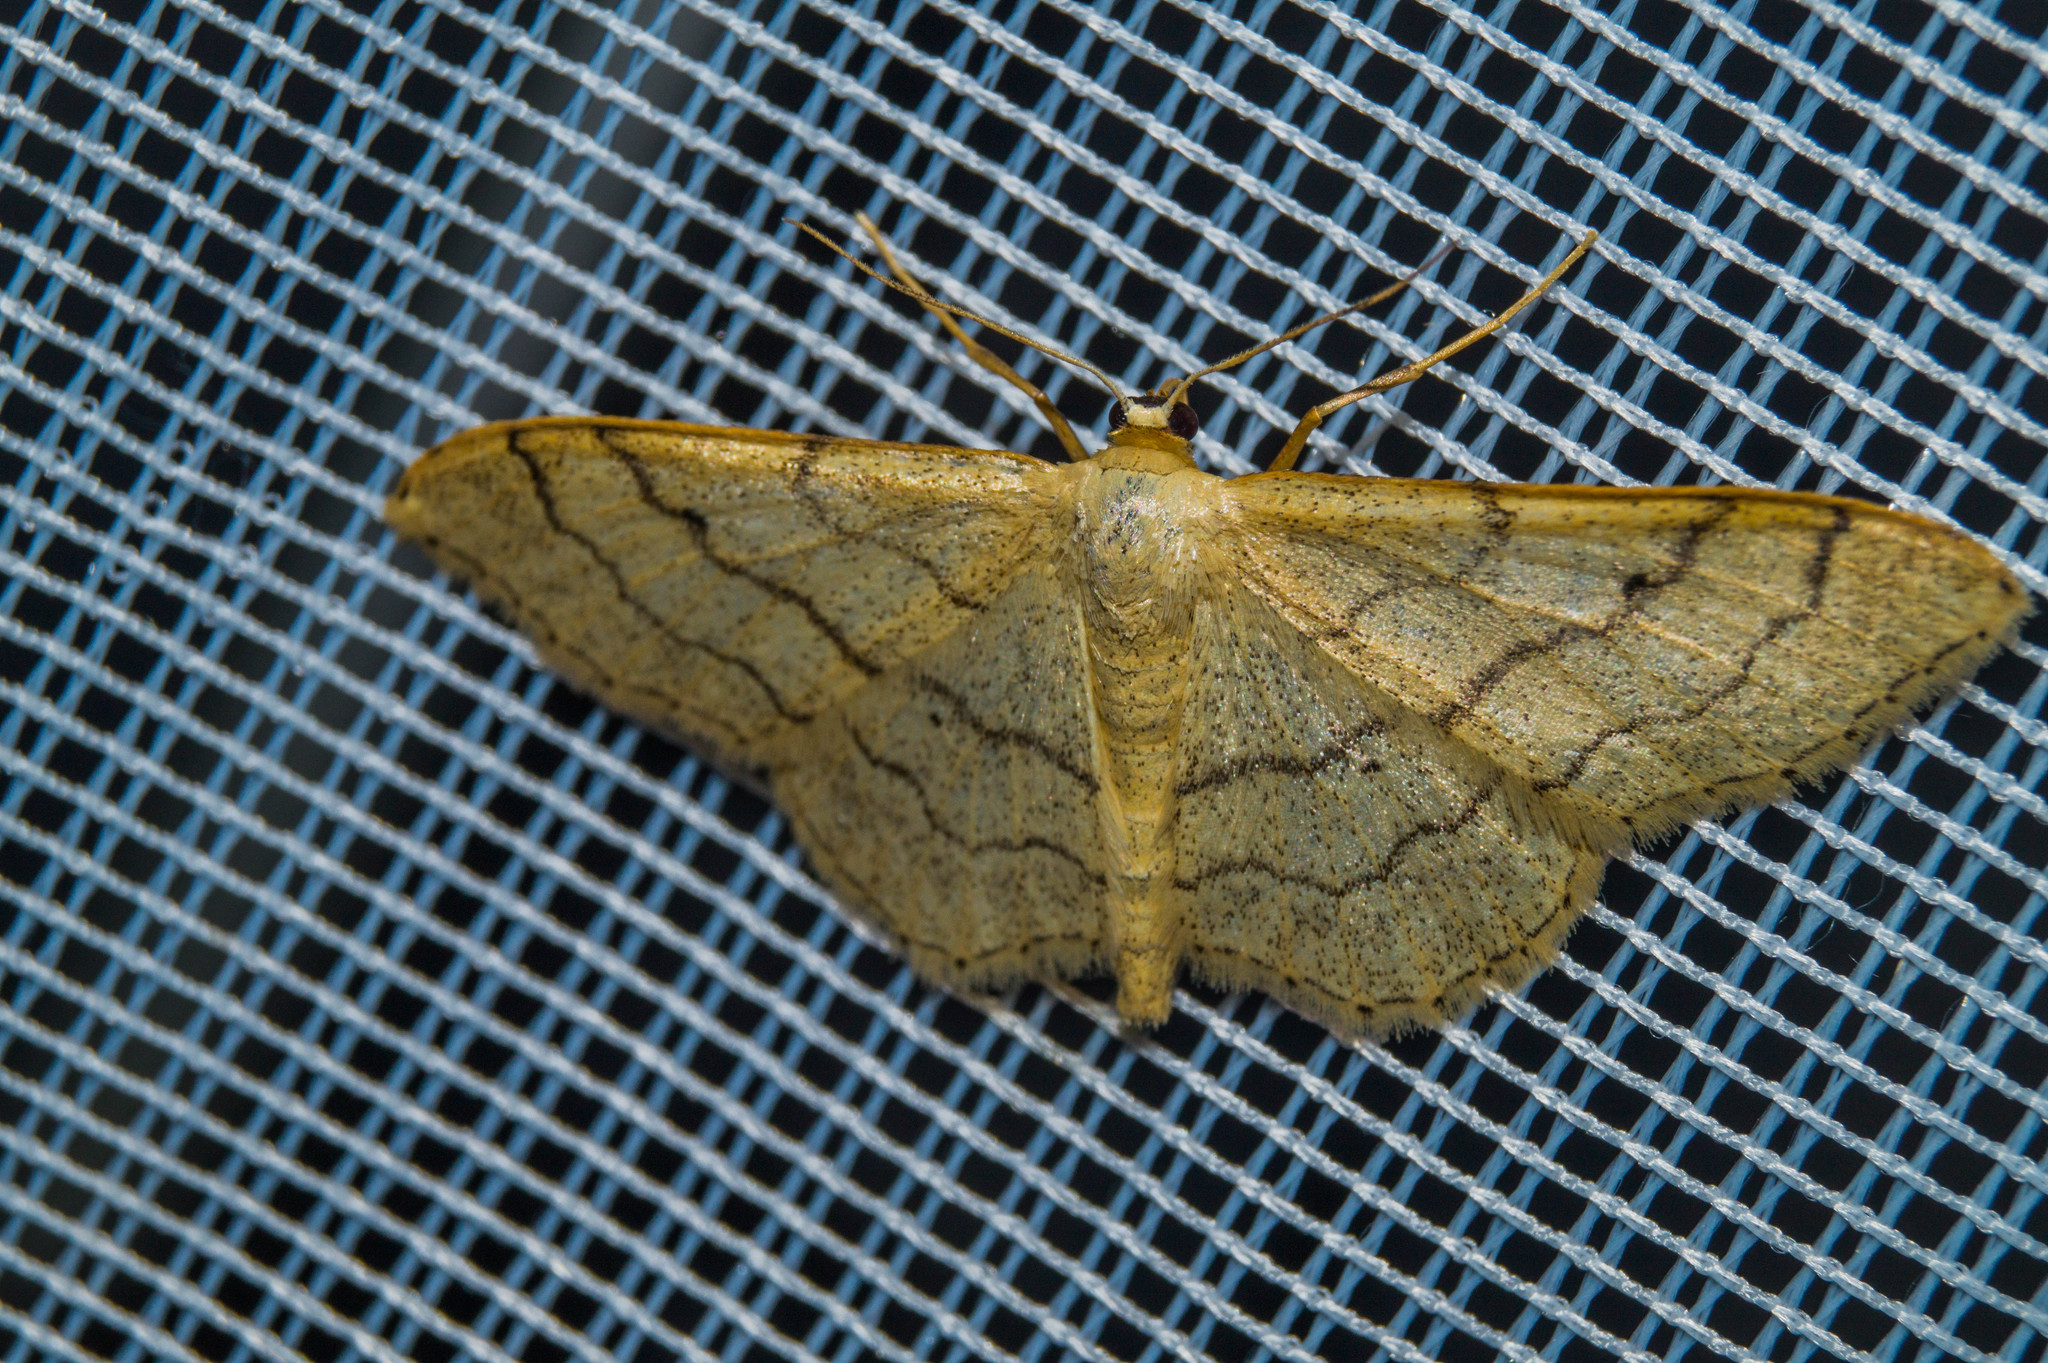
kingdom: Animalia
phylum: Arthropoda
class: Insecta
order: Lepidoptera
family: Geometridae
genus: Idaea
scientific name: Idaea aversata
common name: Riband wave
